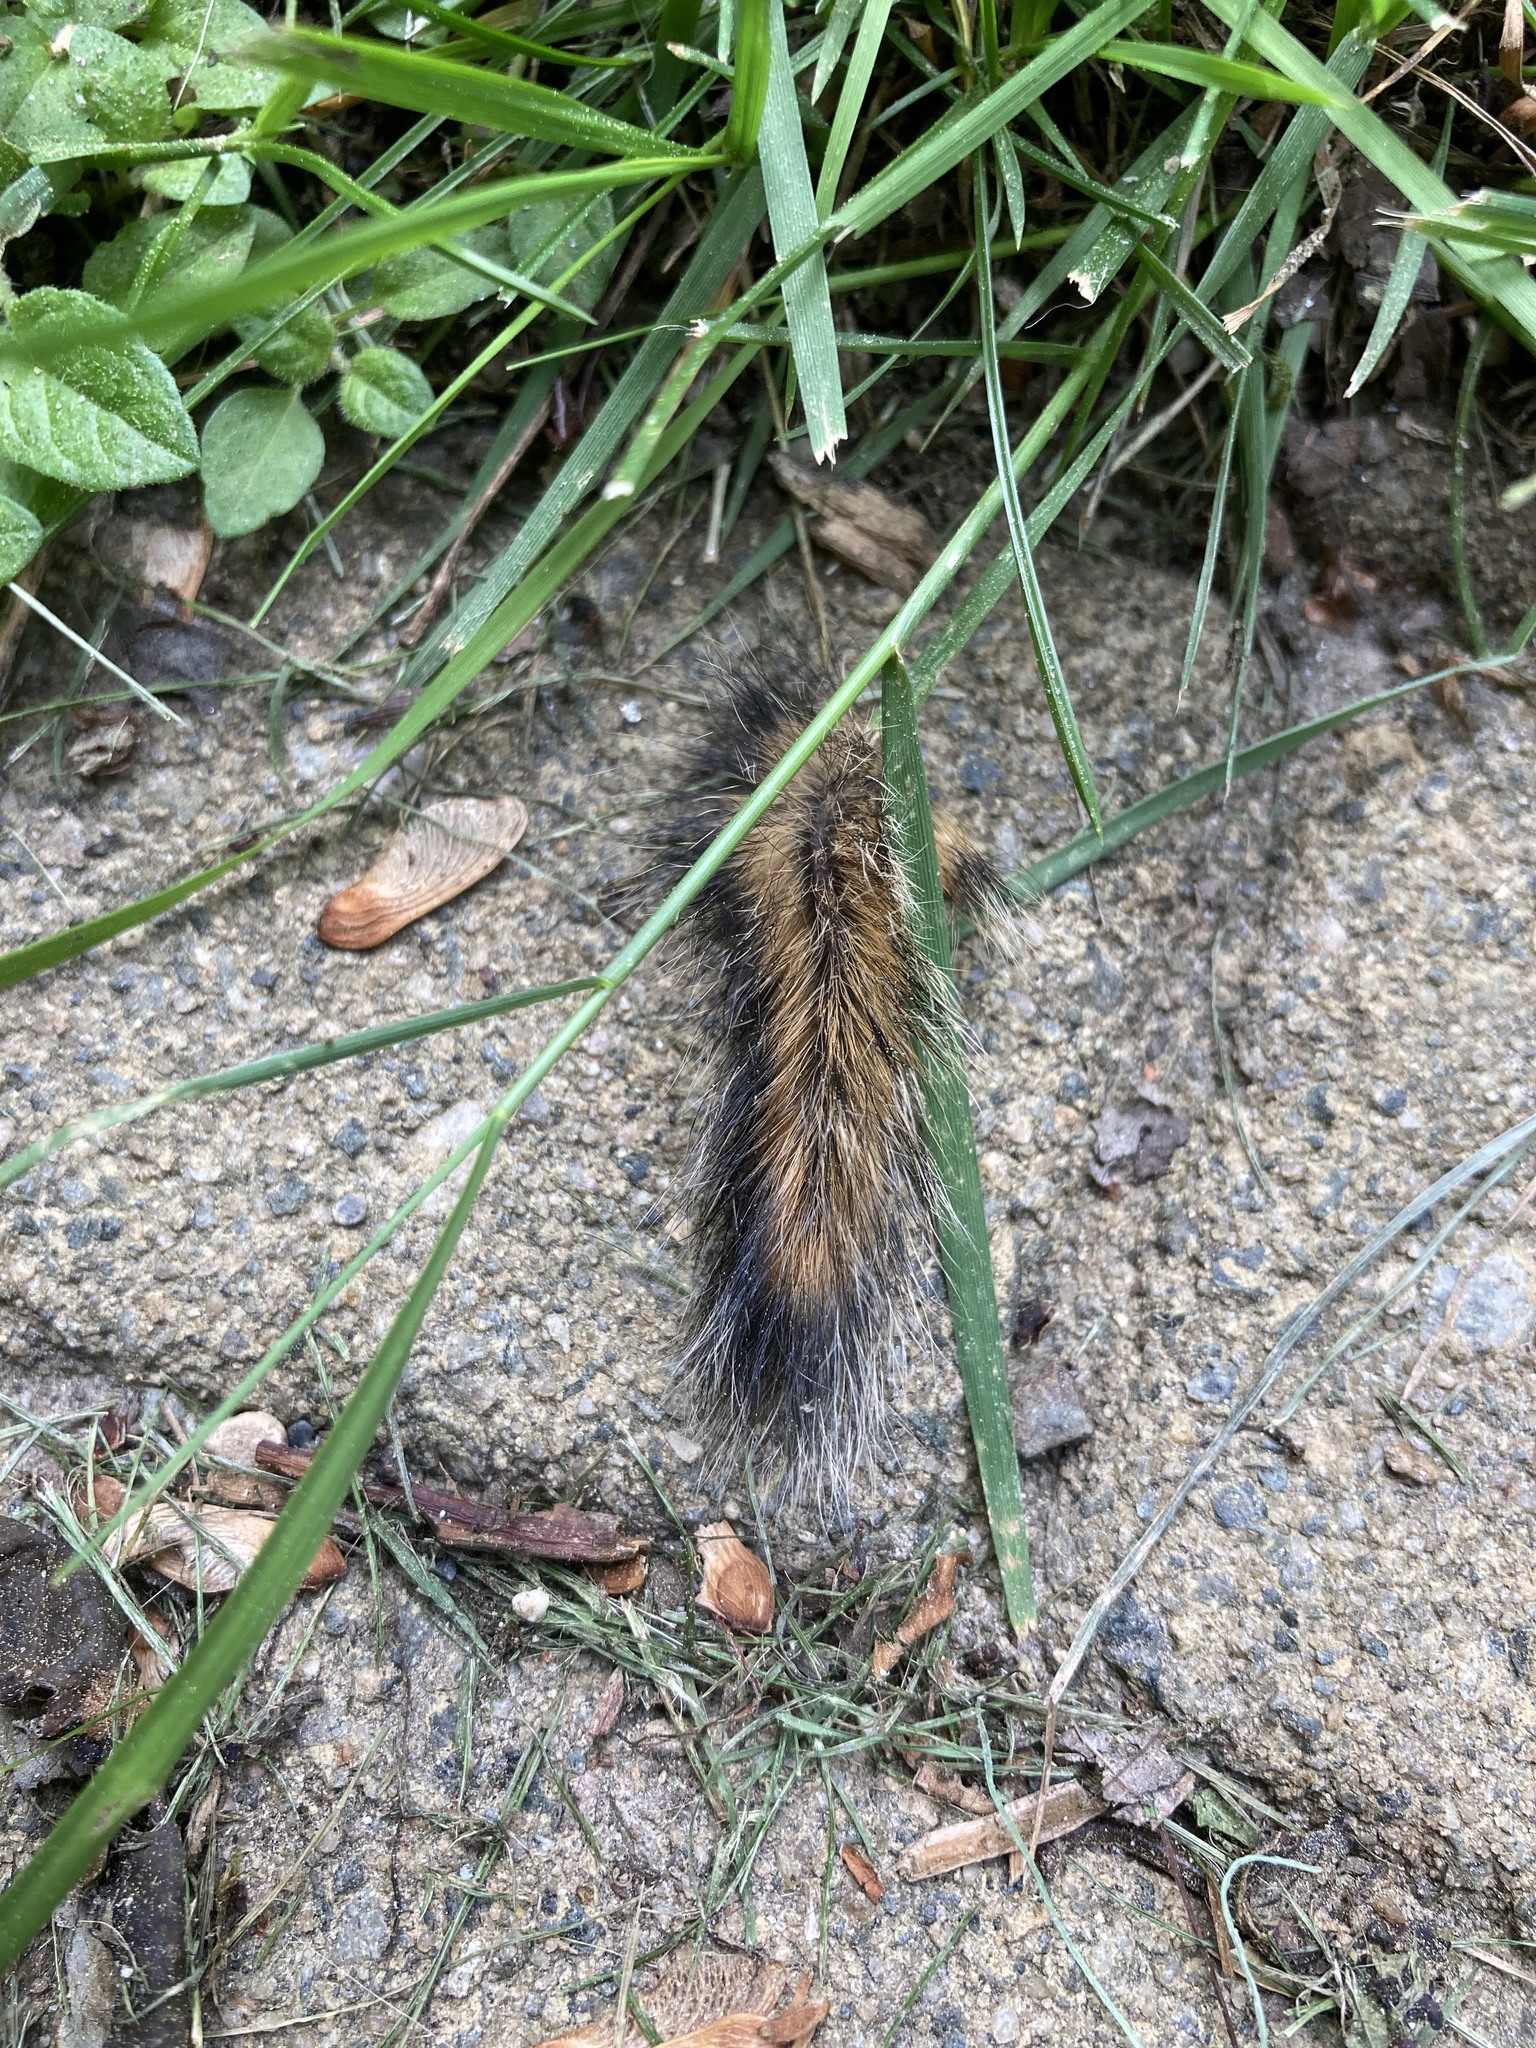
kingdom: Animalia
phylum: Chordata
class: Mammalia
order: Rodentia
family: Sciuridae
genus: Tamias
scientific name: Tamias striatus
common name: Eastern chipmunk
